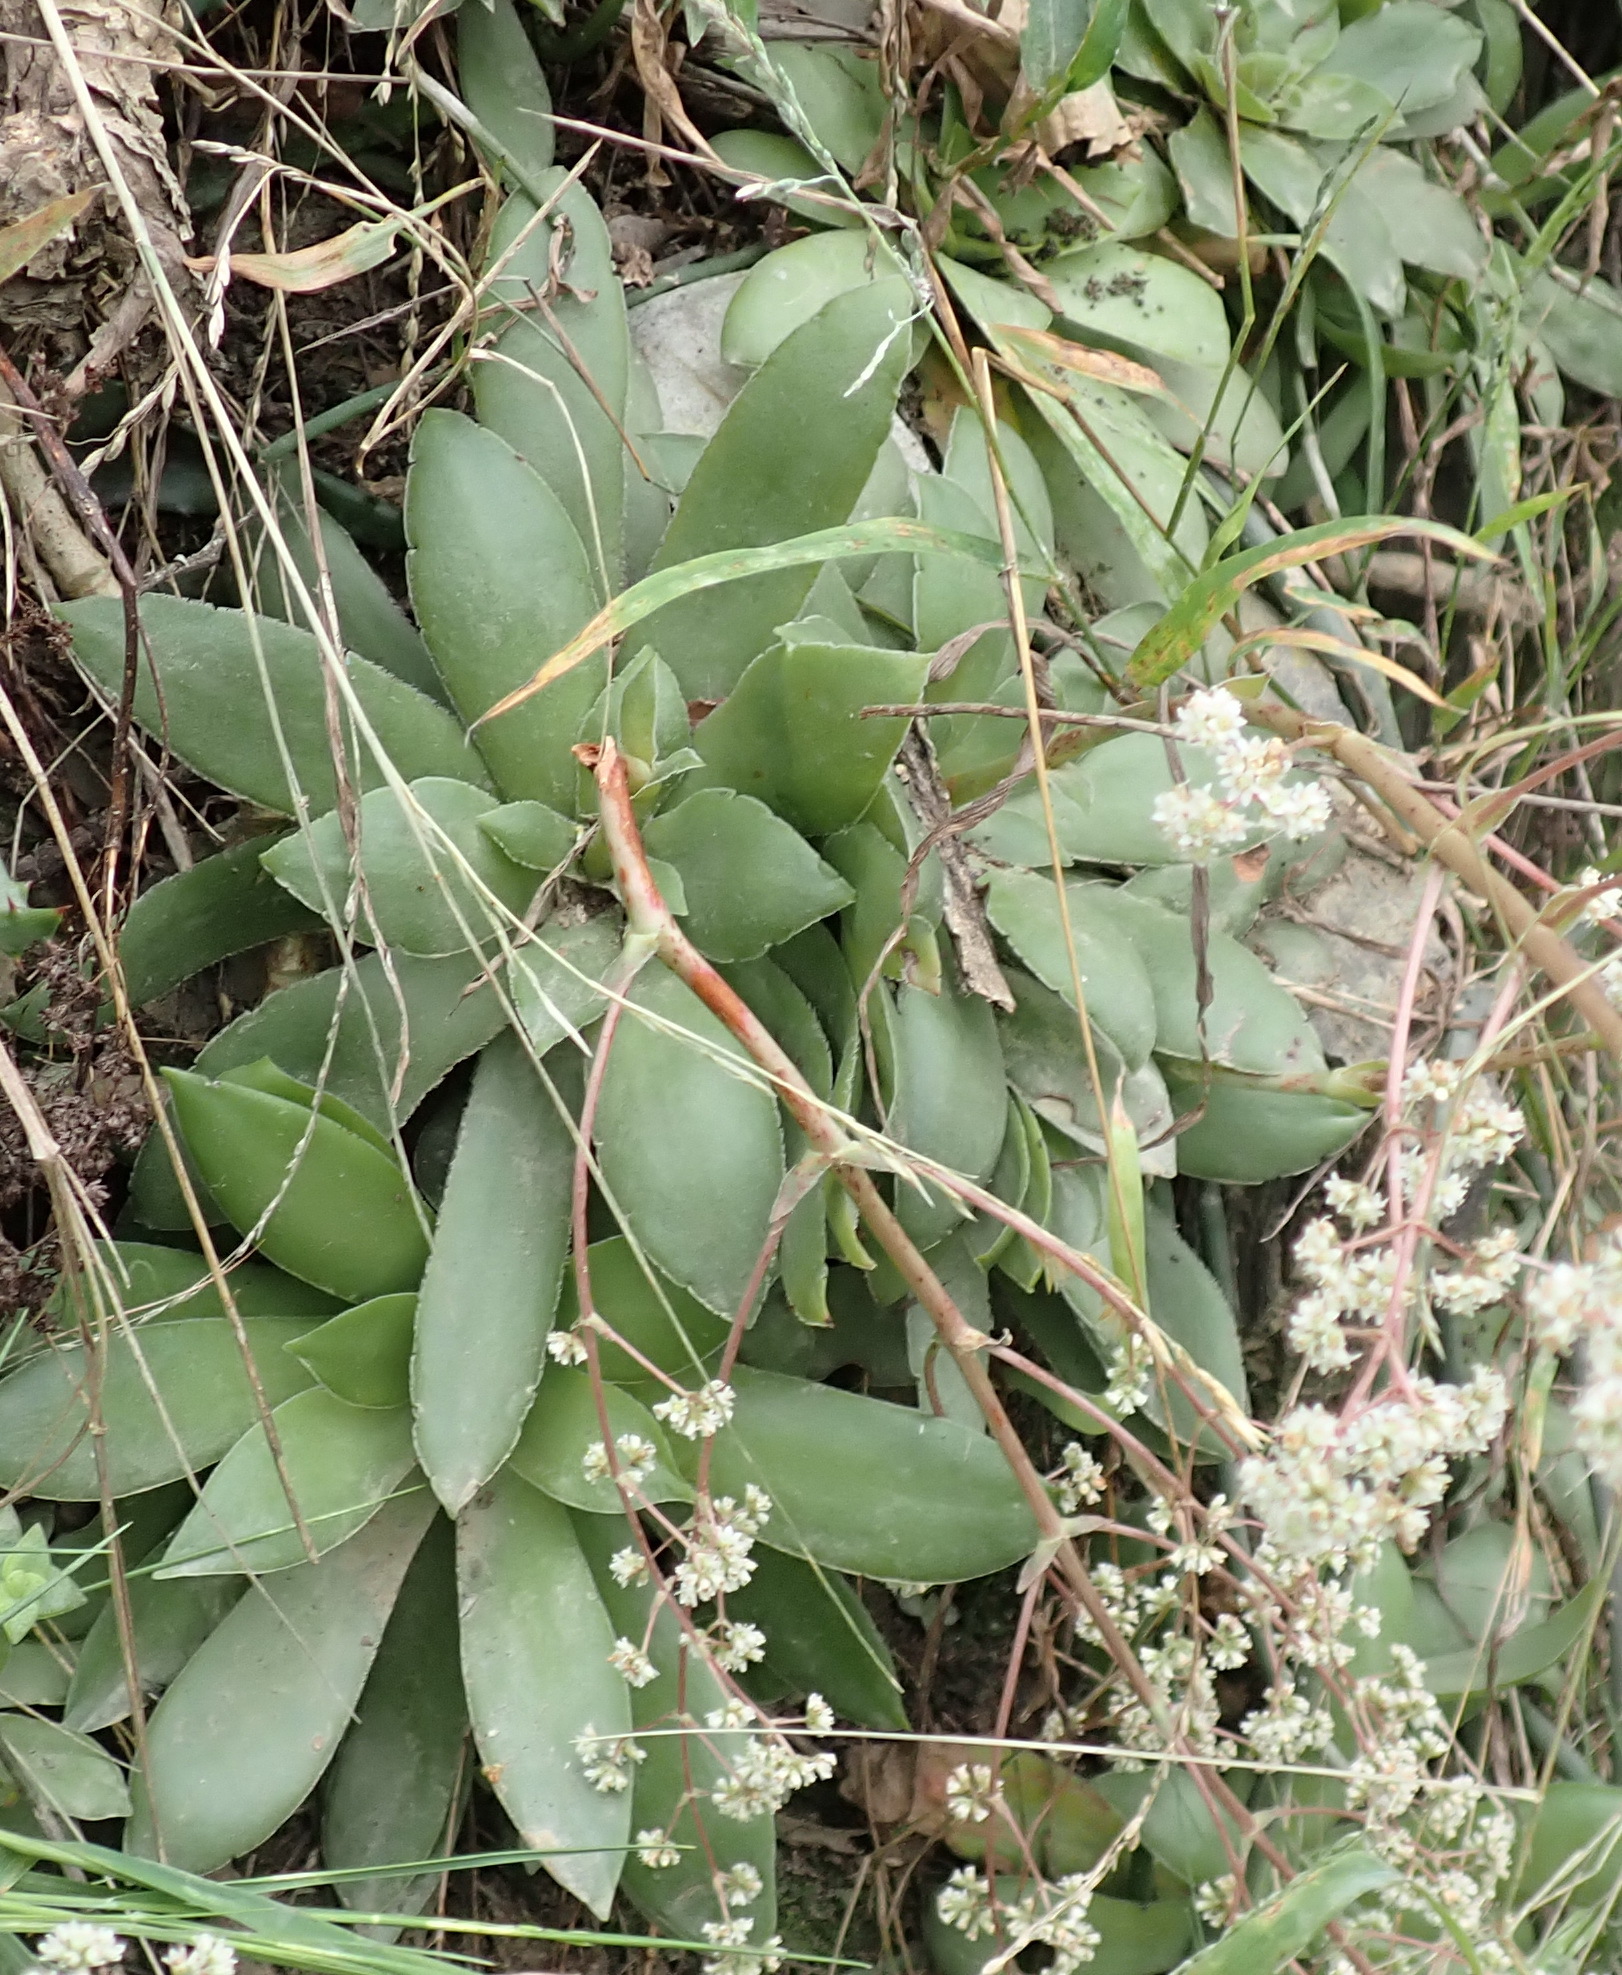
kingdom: Plantae
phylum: Tracheophyta
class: Magnoliopsida
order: Saxifragales
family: Crassulaceae
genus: Crassula
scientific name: Crassula orbicularis
